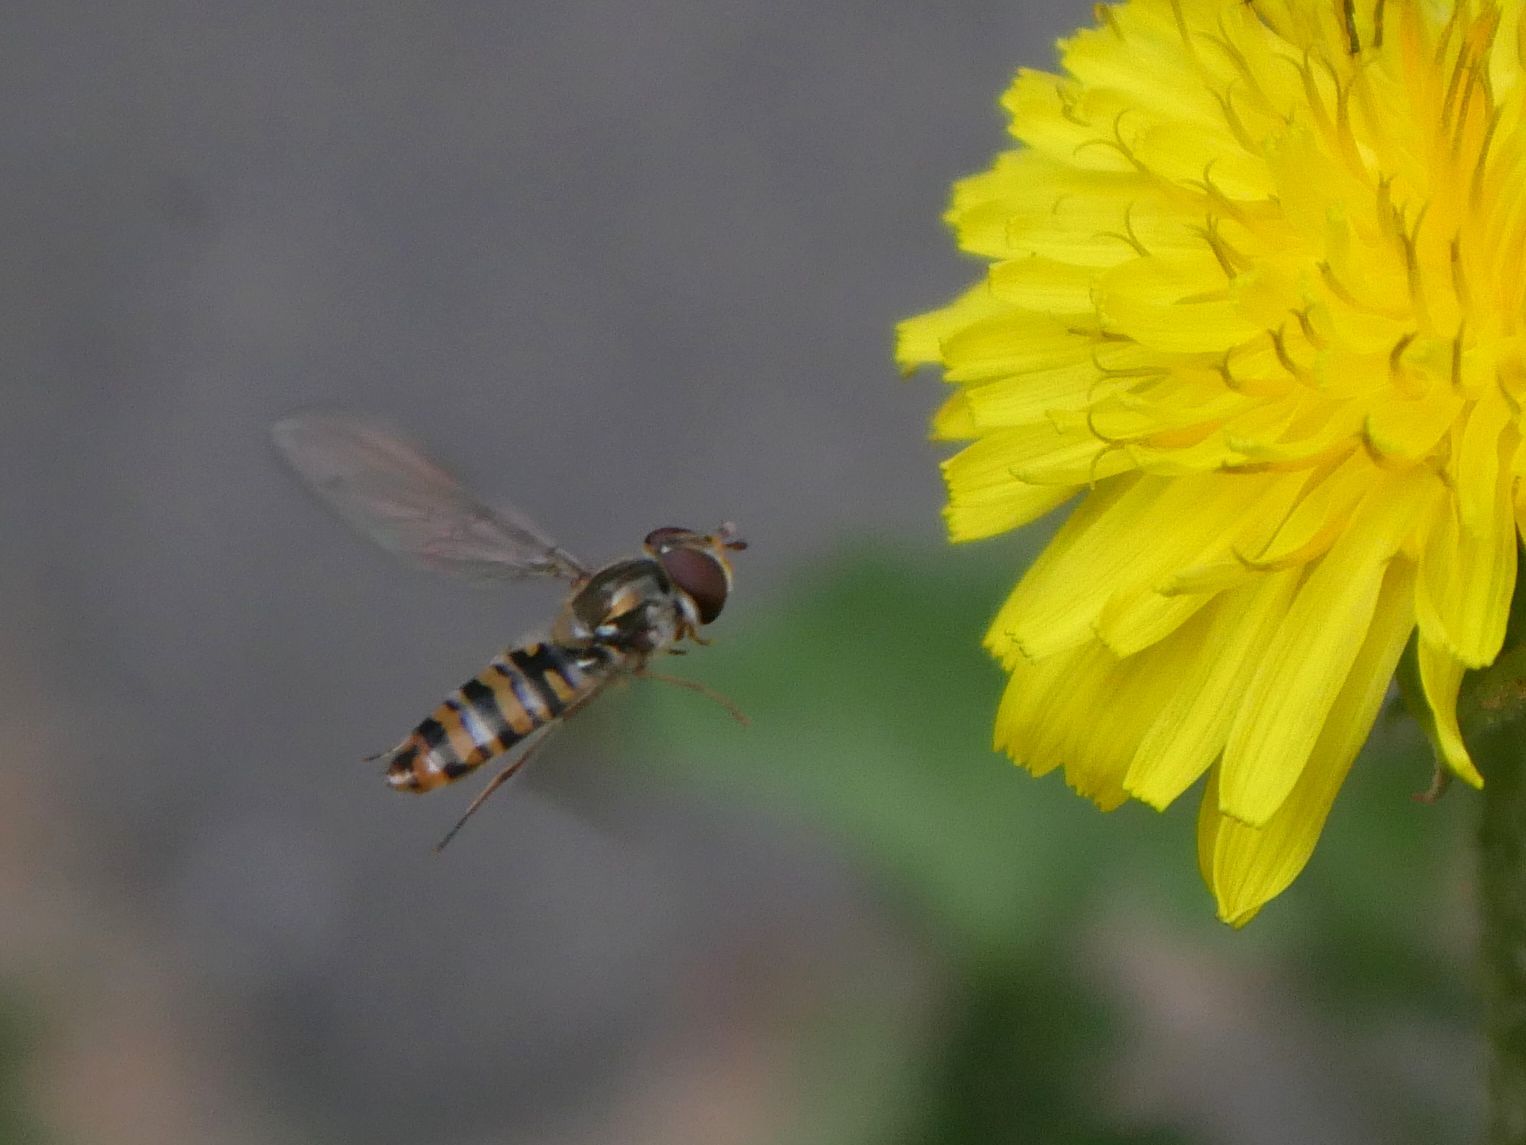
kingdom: Animalia
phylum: Arthropoda
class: Insecta
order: Diptera
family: Syrphidae
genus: Episyrphus
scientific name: Episyrphus balteatus
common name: Marmalade hoverfly
